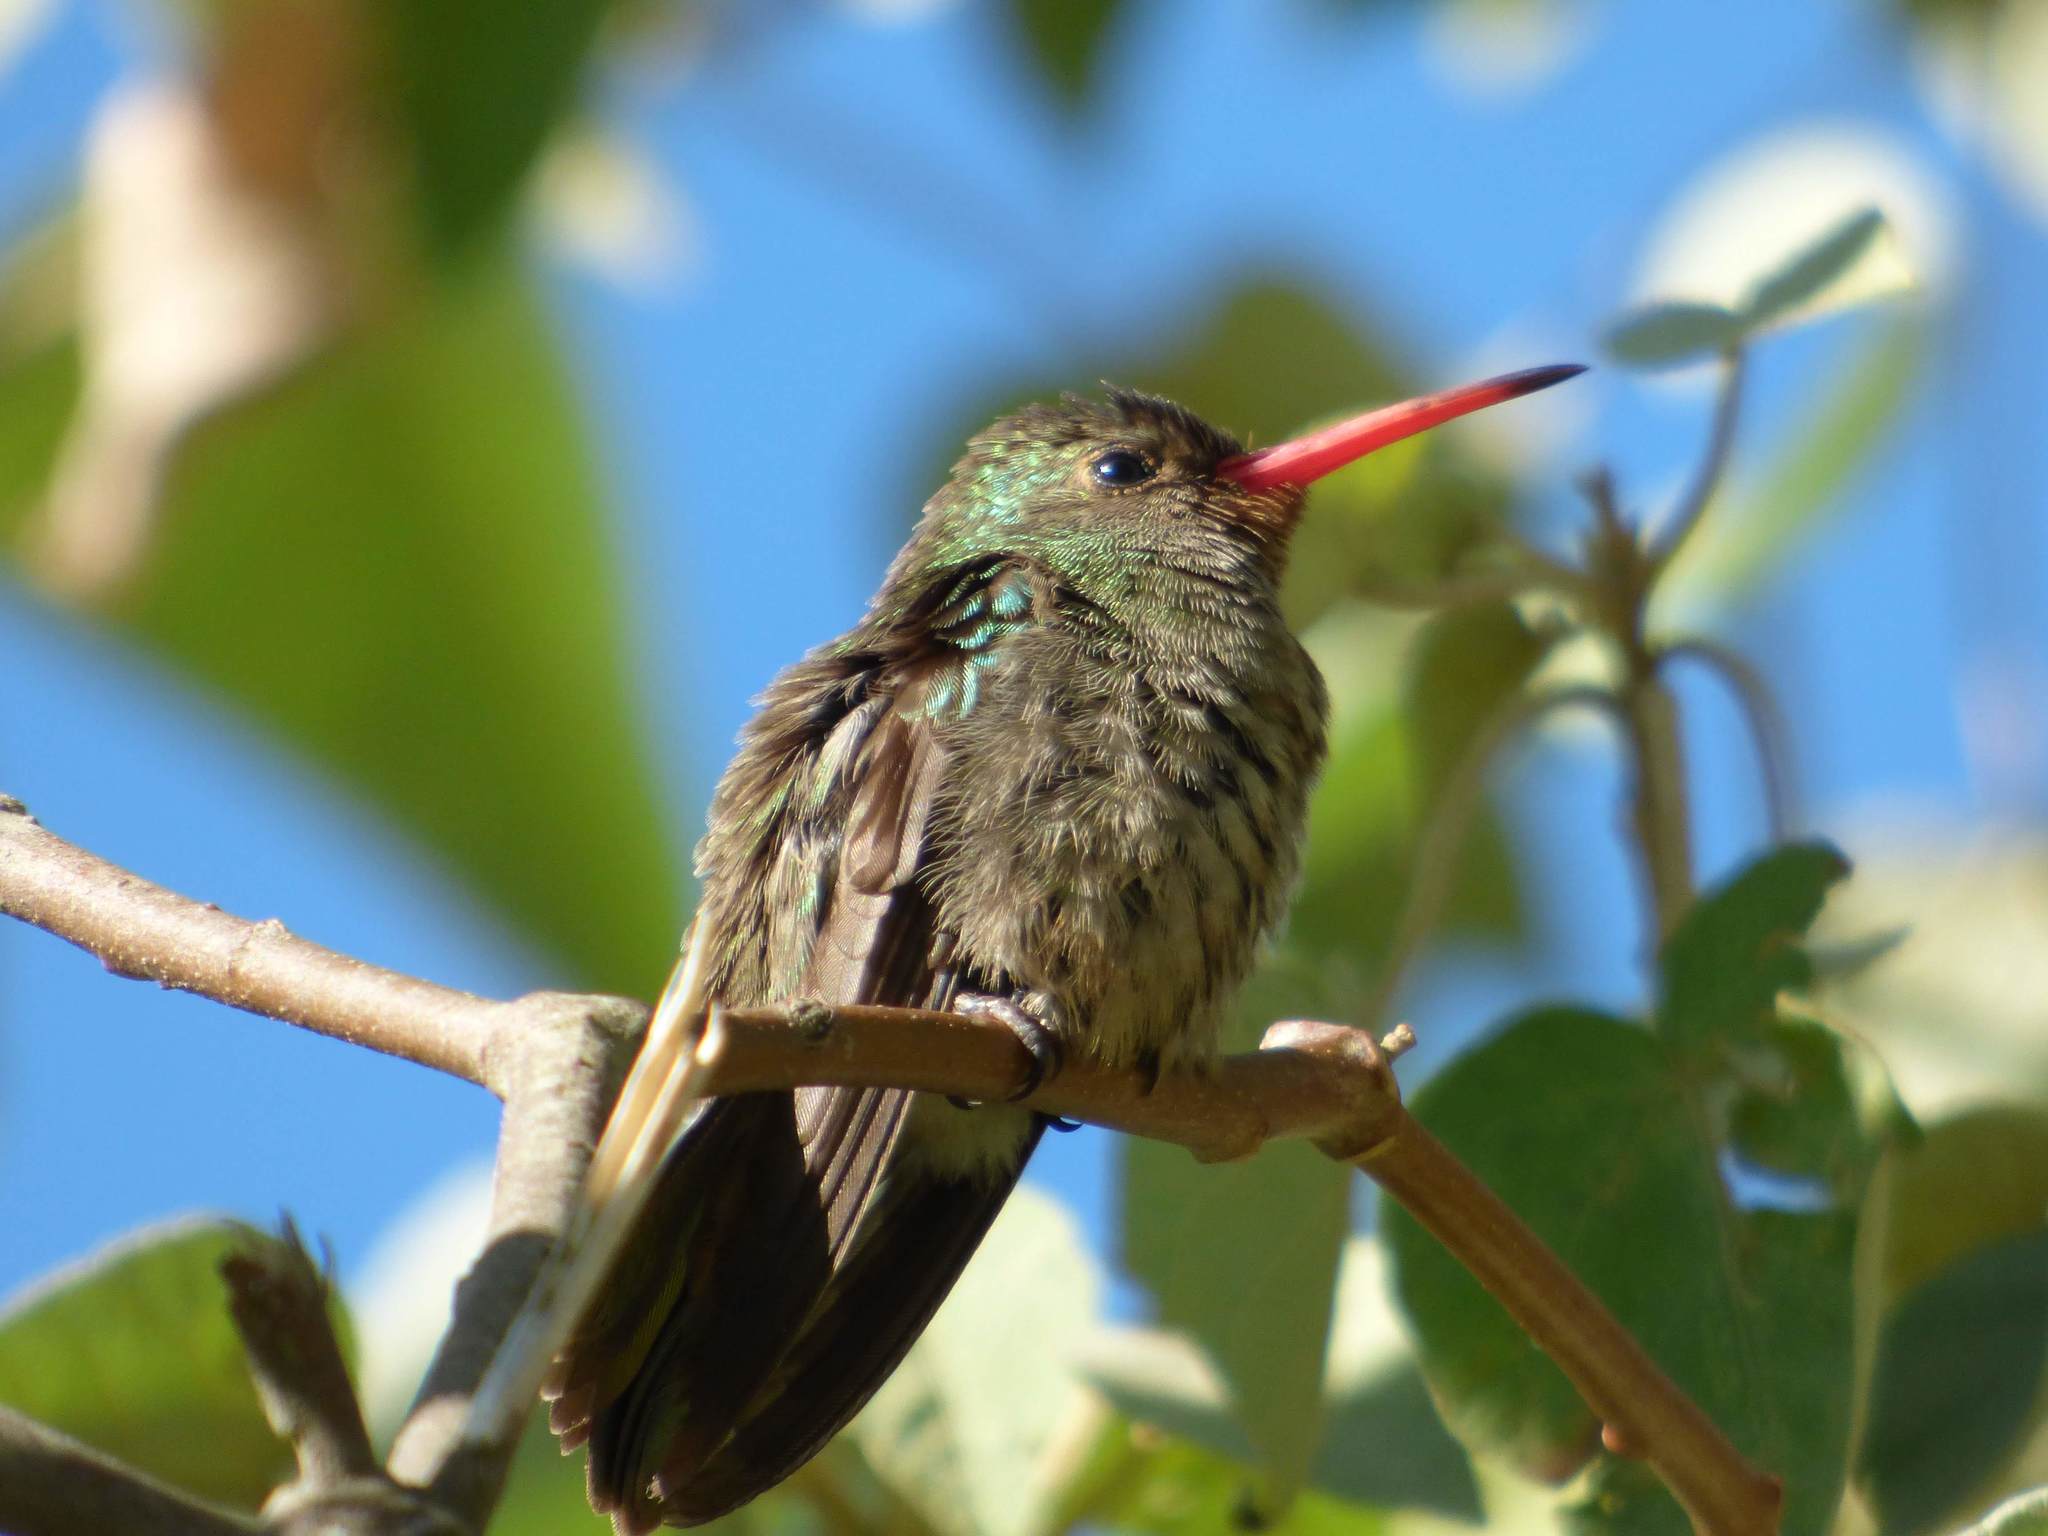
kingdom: Animalia
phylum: Chordata
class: Aves
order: Apodiformes
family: Trochilidae
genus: Chlorostilbon
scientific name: Chlorostilbon lucidus
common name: Glittering-bellied emerald
